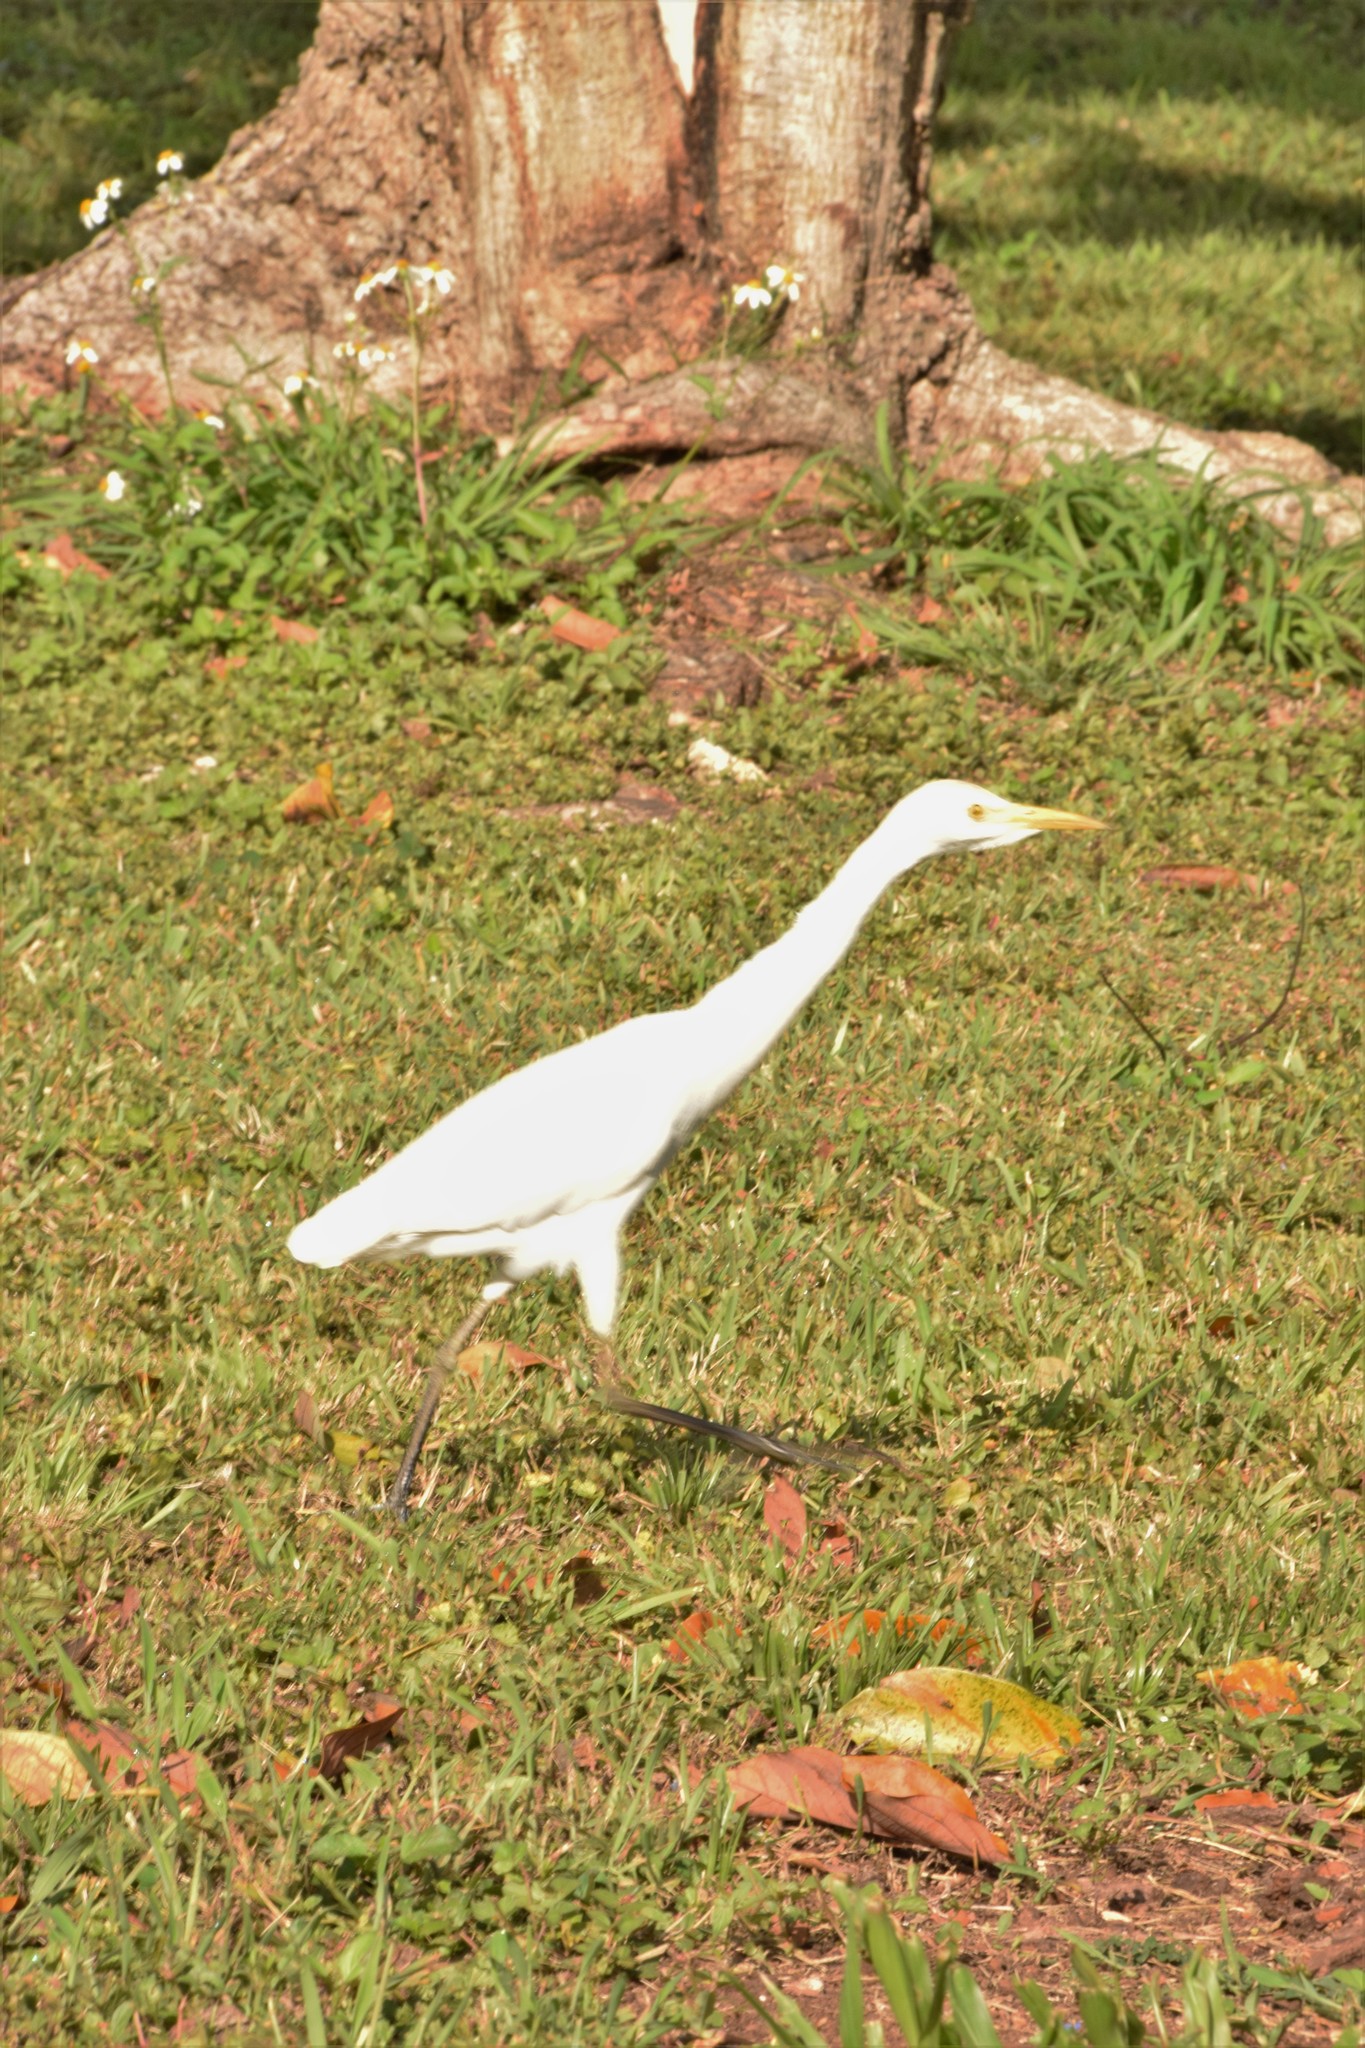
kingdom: Animalia
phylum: Chordata
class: Aves
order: Pelecaniformes
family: Ardeidae
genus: Bubulcus
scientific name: Bubulcus ibis
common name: Cattle egret
